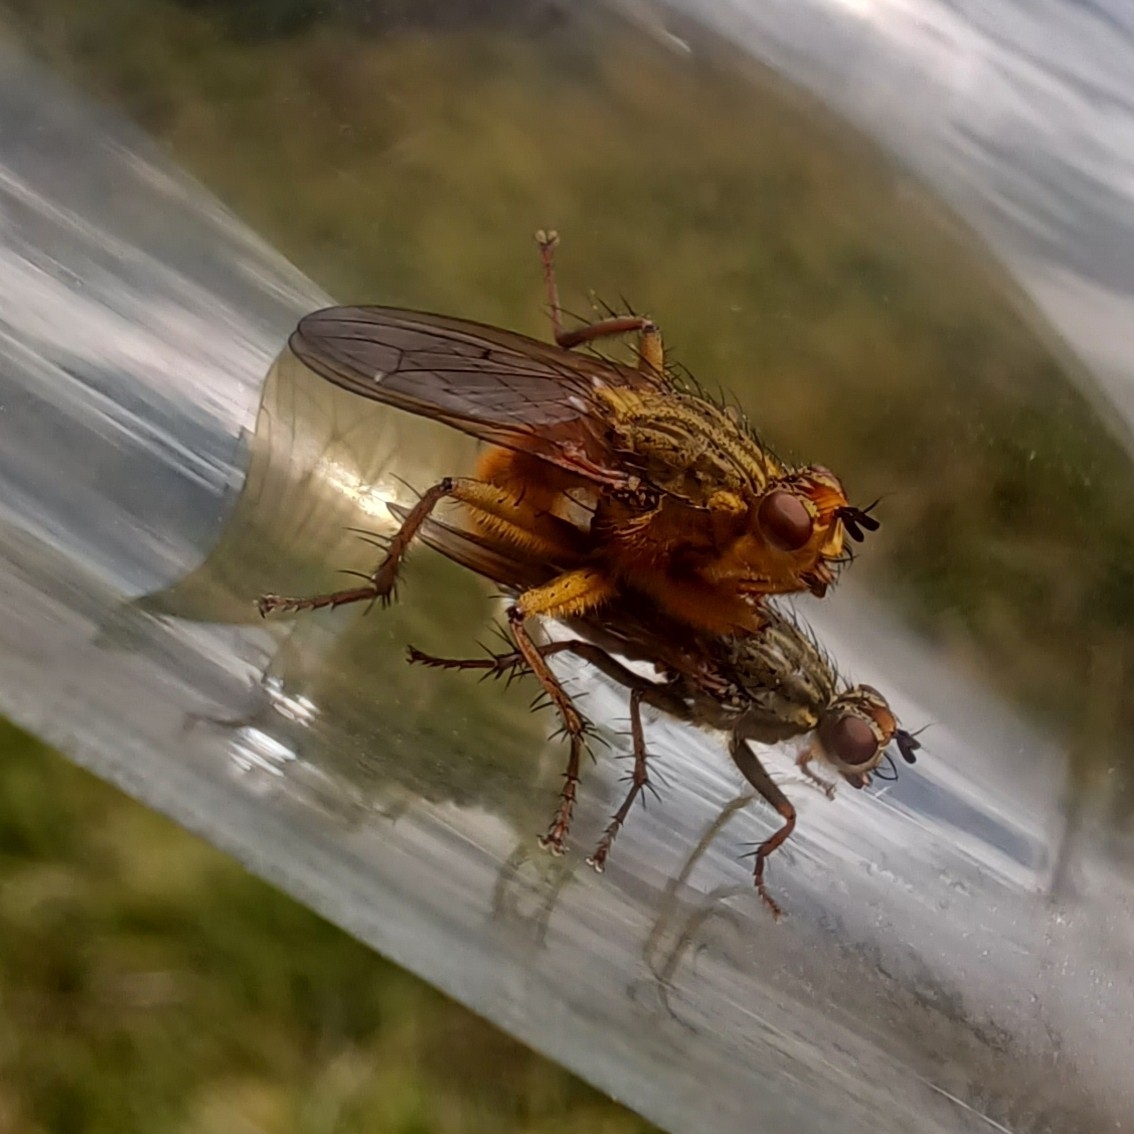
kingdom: Animalia
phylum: Arthropoda
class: Insecta
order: Diptera
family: Scathophagidae
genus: Scathophaga
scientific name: Scathophaga stercoraria
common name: Yellow dung fly
